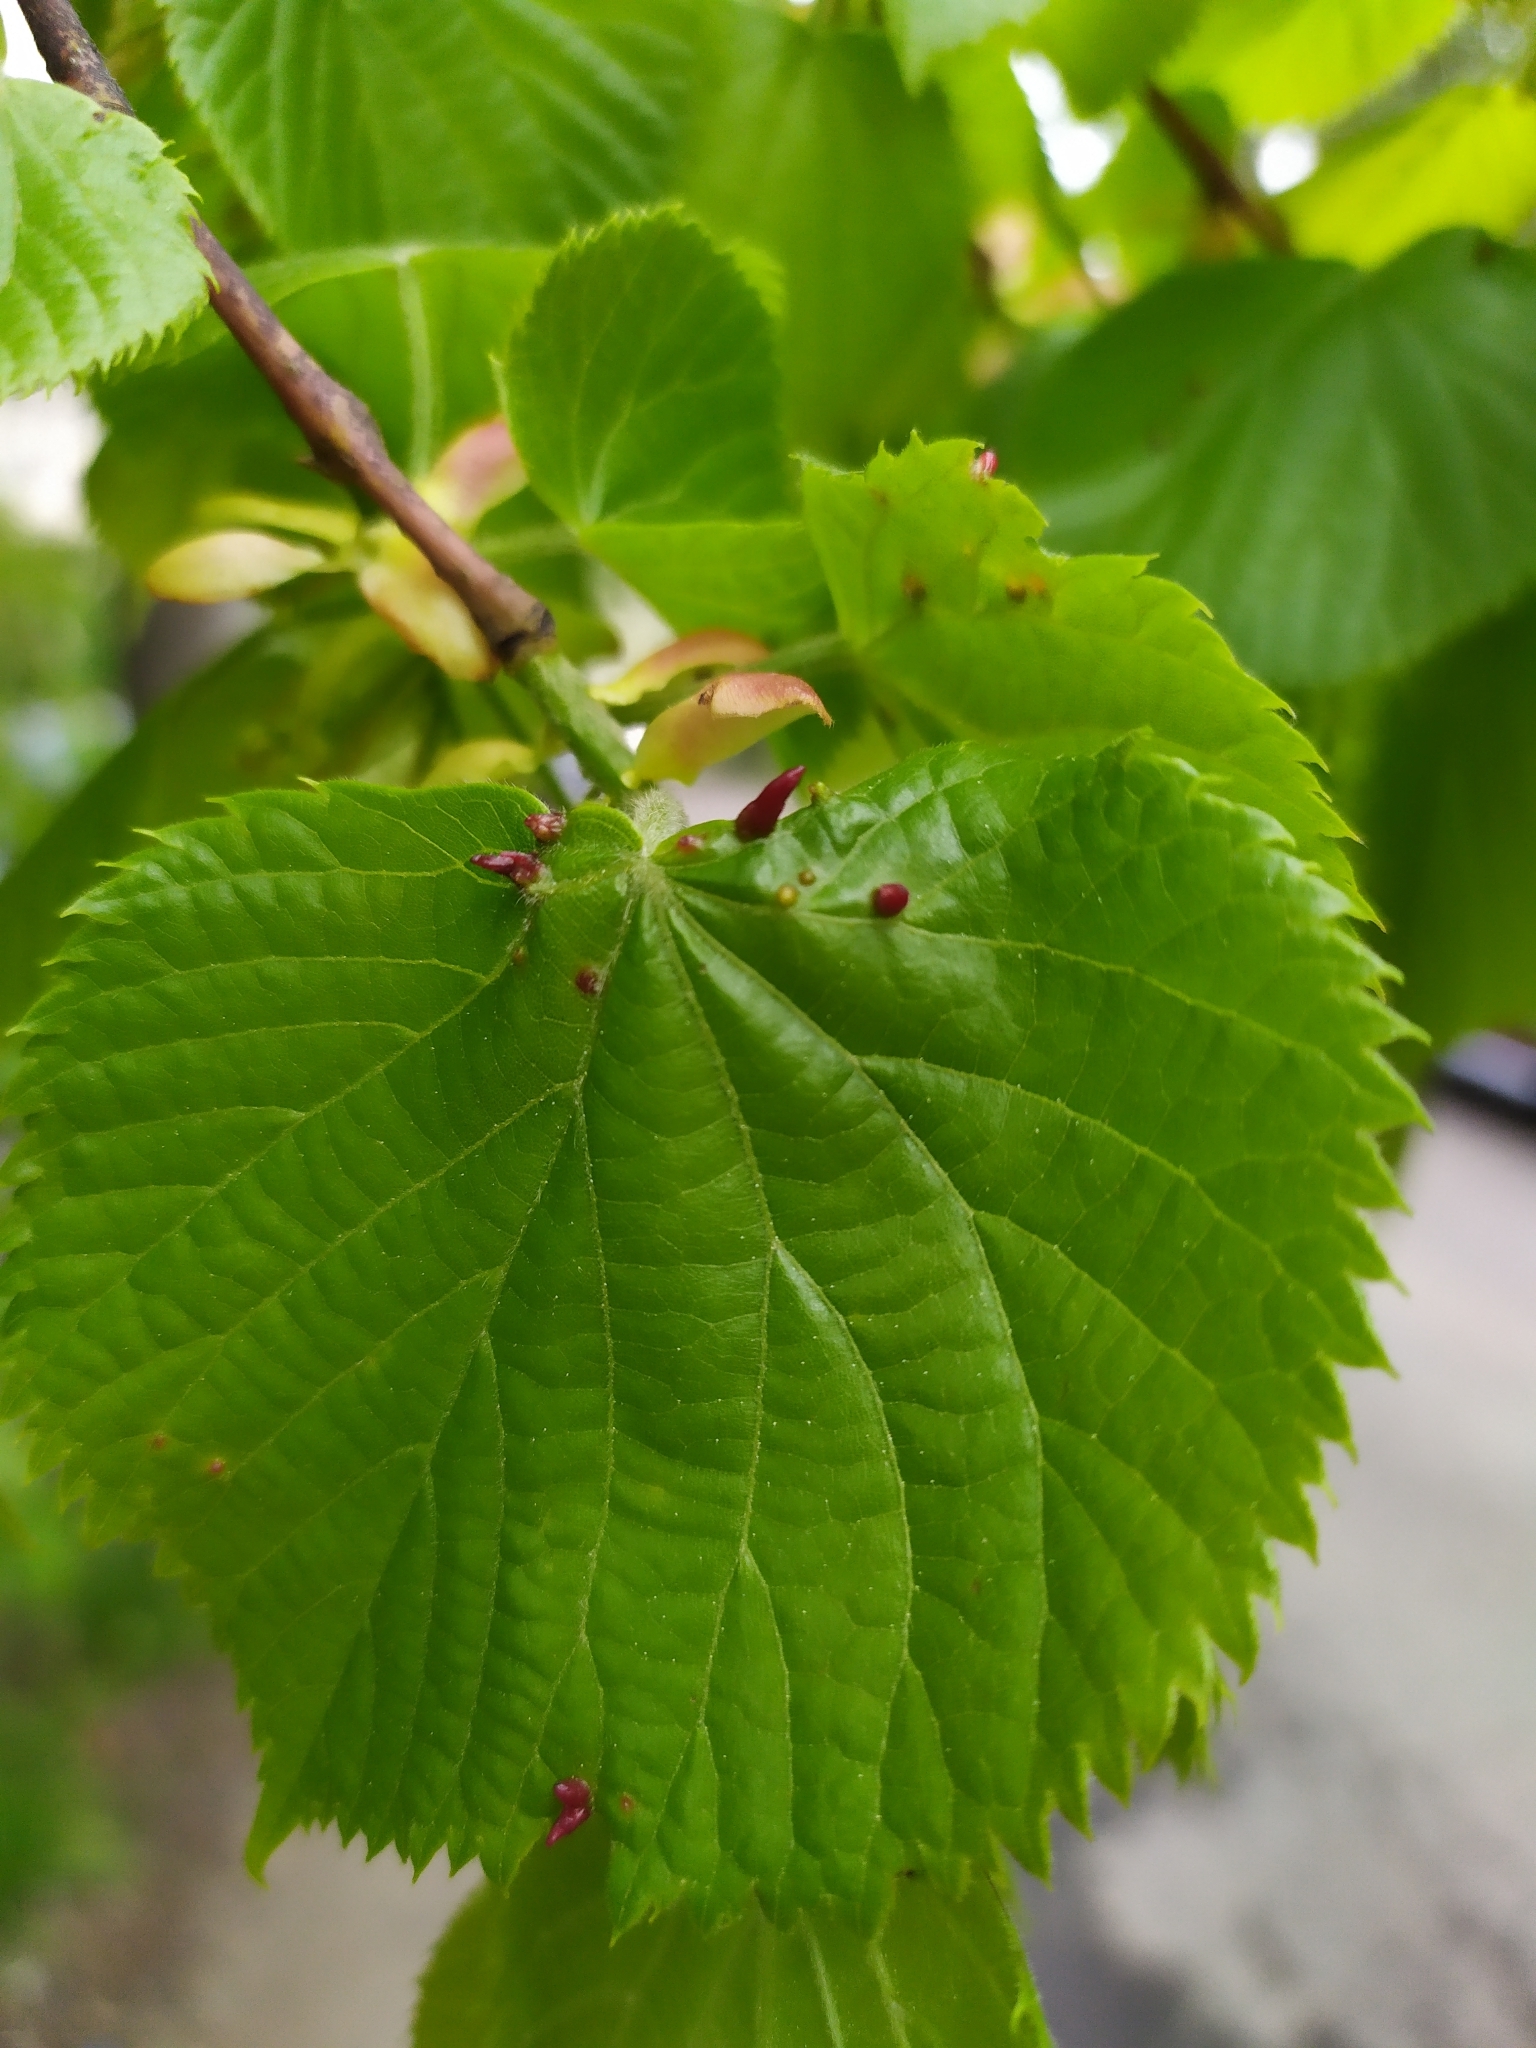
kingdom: Animalia
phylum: Arthropoda
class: Arachnida
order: Trombidiformes
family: Eriophyidae
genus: Eriophyes
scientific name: Eriophyes tiliae
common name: Red nail gall mite
